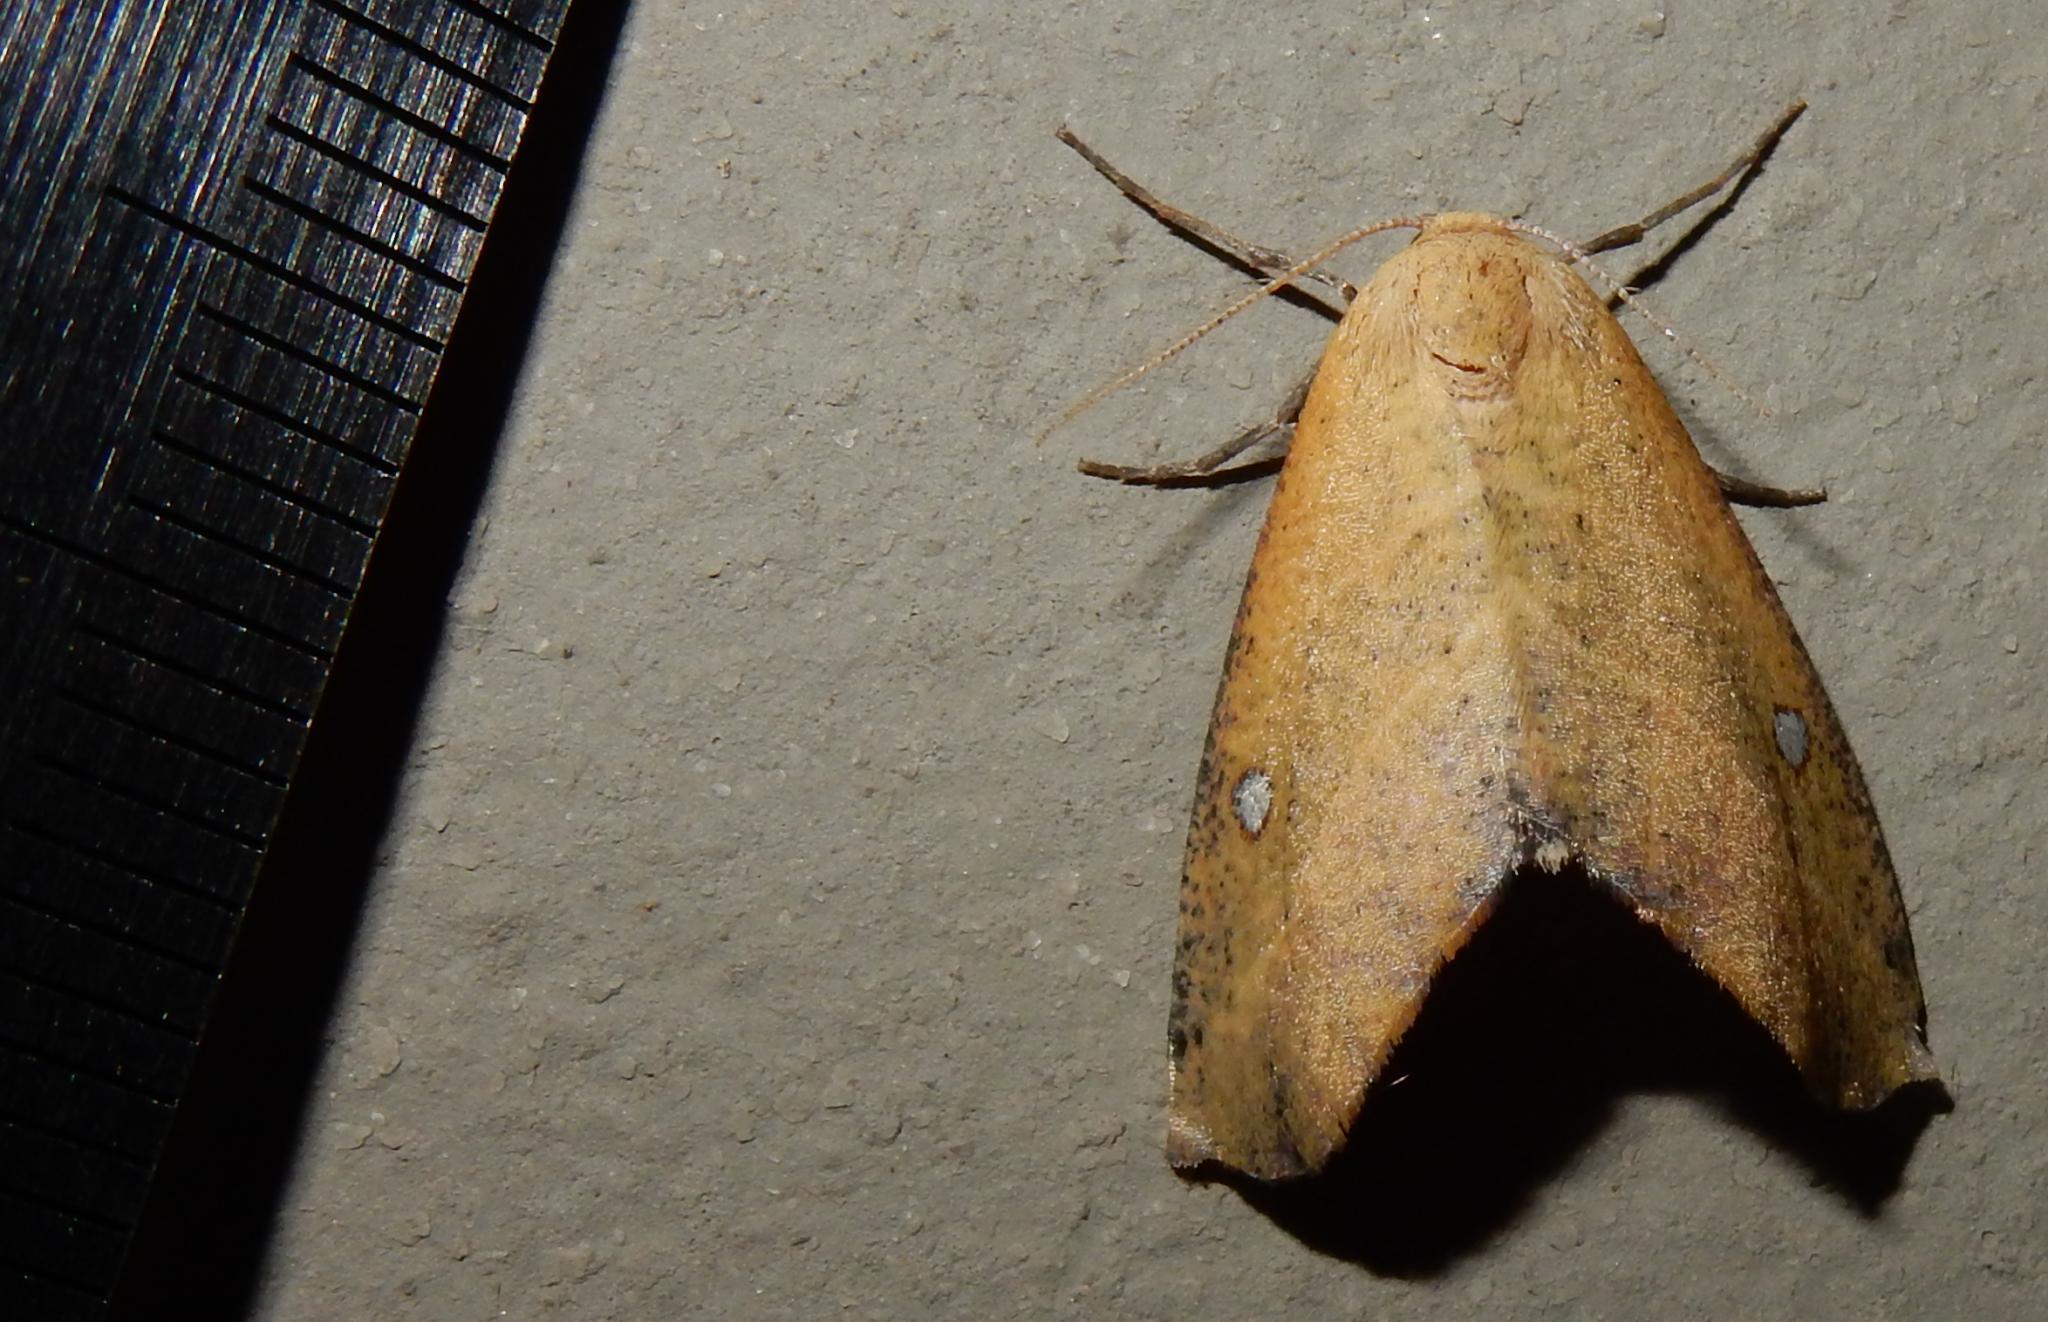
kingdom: Animalia
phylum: Arthropoda
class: Insecta
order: Lepidoptera
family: Geometridae
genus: Sicyodes
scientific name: Sicyodes ocellata
